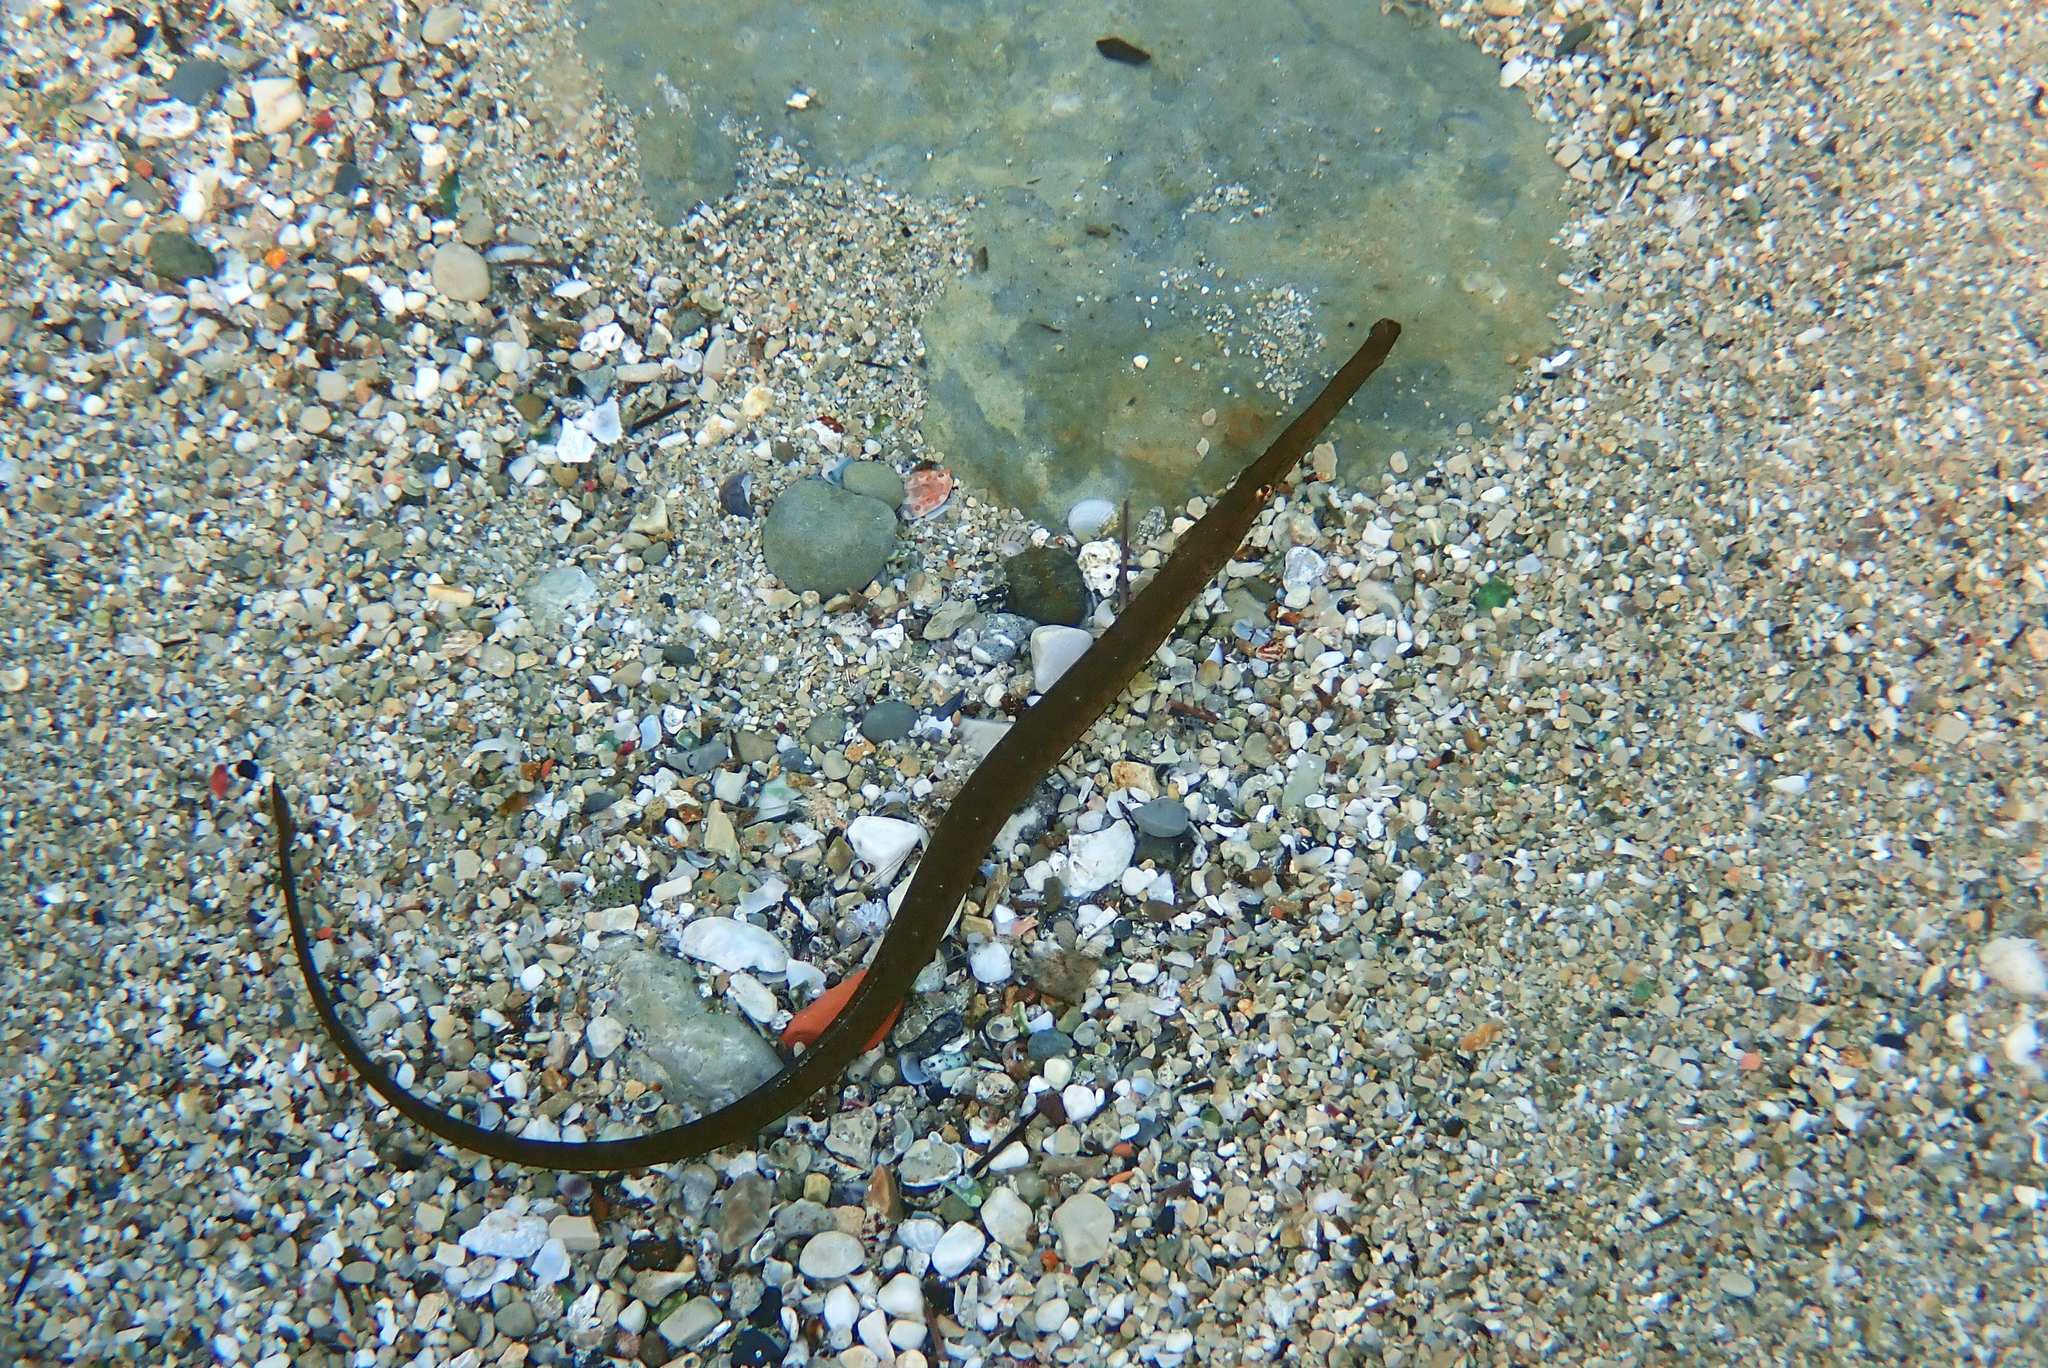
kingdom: Animalia
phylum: Chordata
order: Syngnathiformes
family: Syngnathidae
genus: Syngnathus
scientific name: Syngnathus typhle
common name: Deep-snouted pipefish
